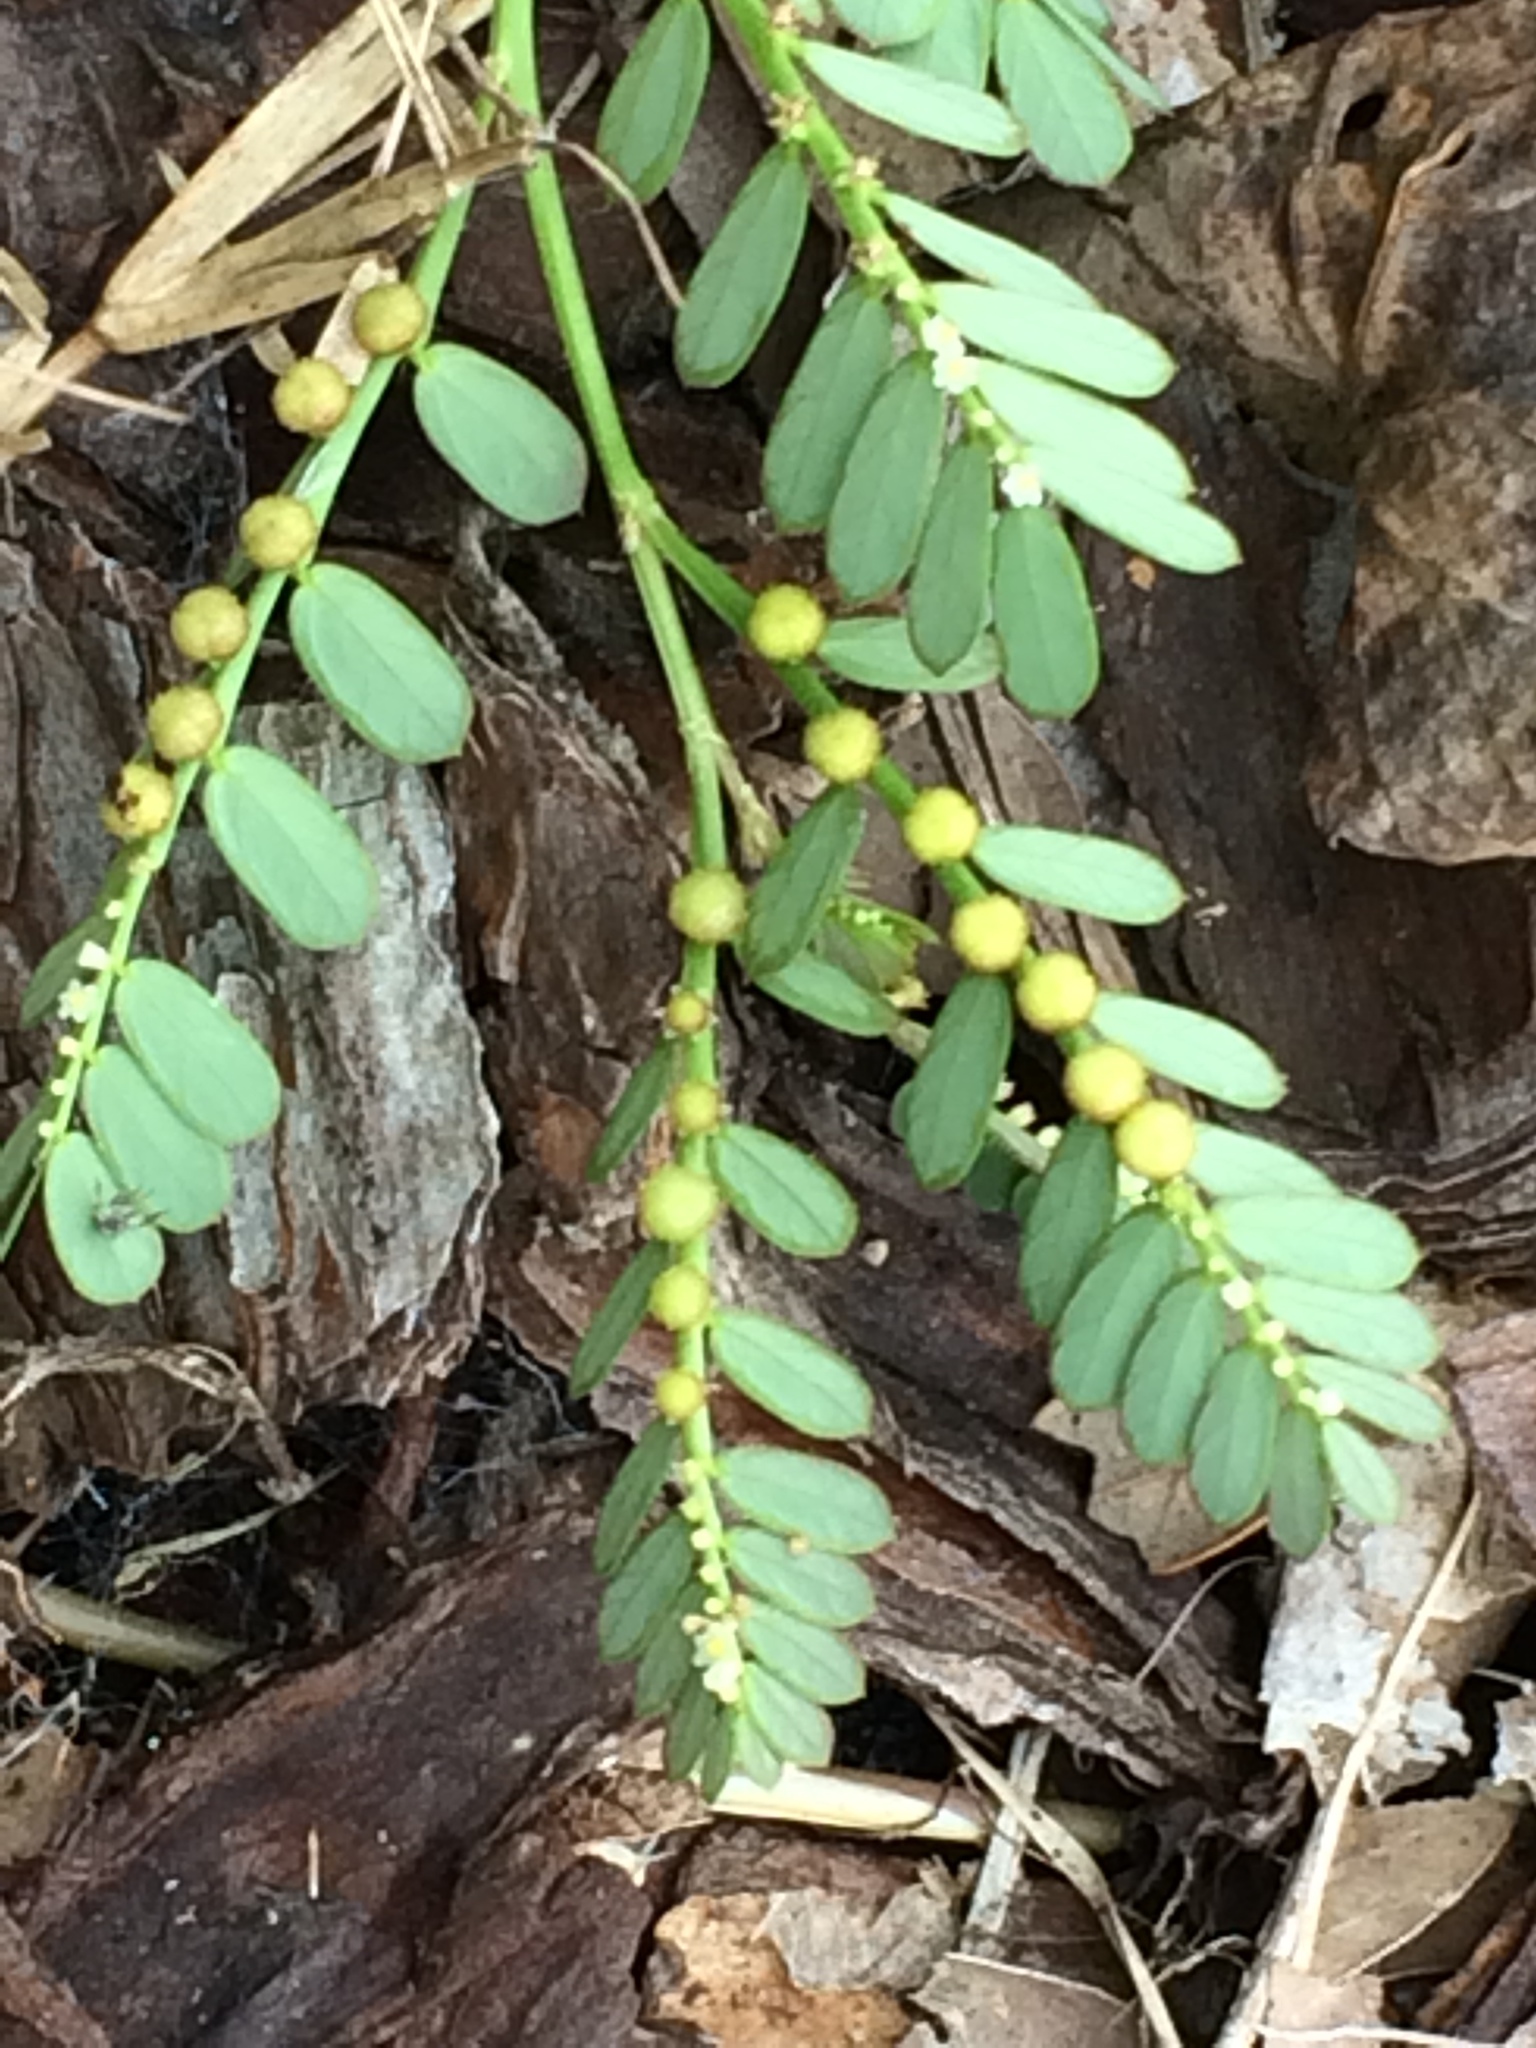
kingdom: Plantae
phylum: Tracheophyta
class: Magnoliopsida
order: Malpighiales
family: Phyllanthaceae
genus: Phyllanthus
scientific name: Phyllanthus urinaria
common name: Chamber bitter
